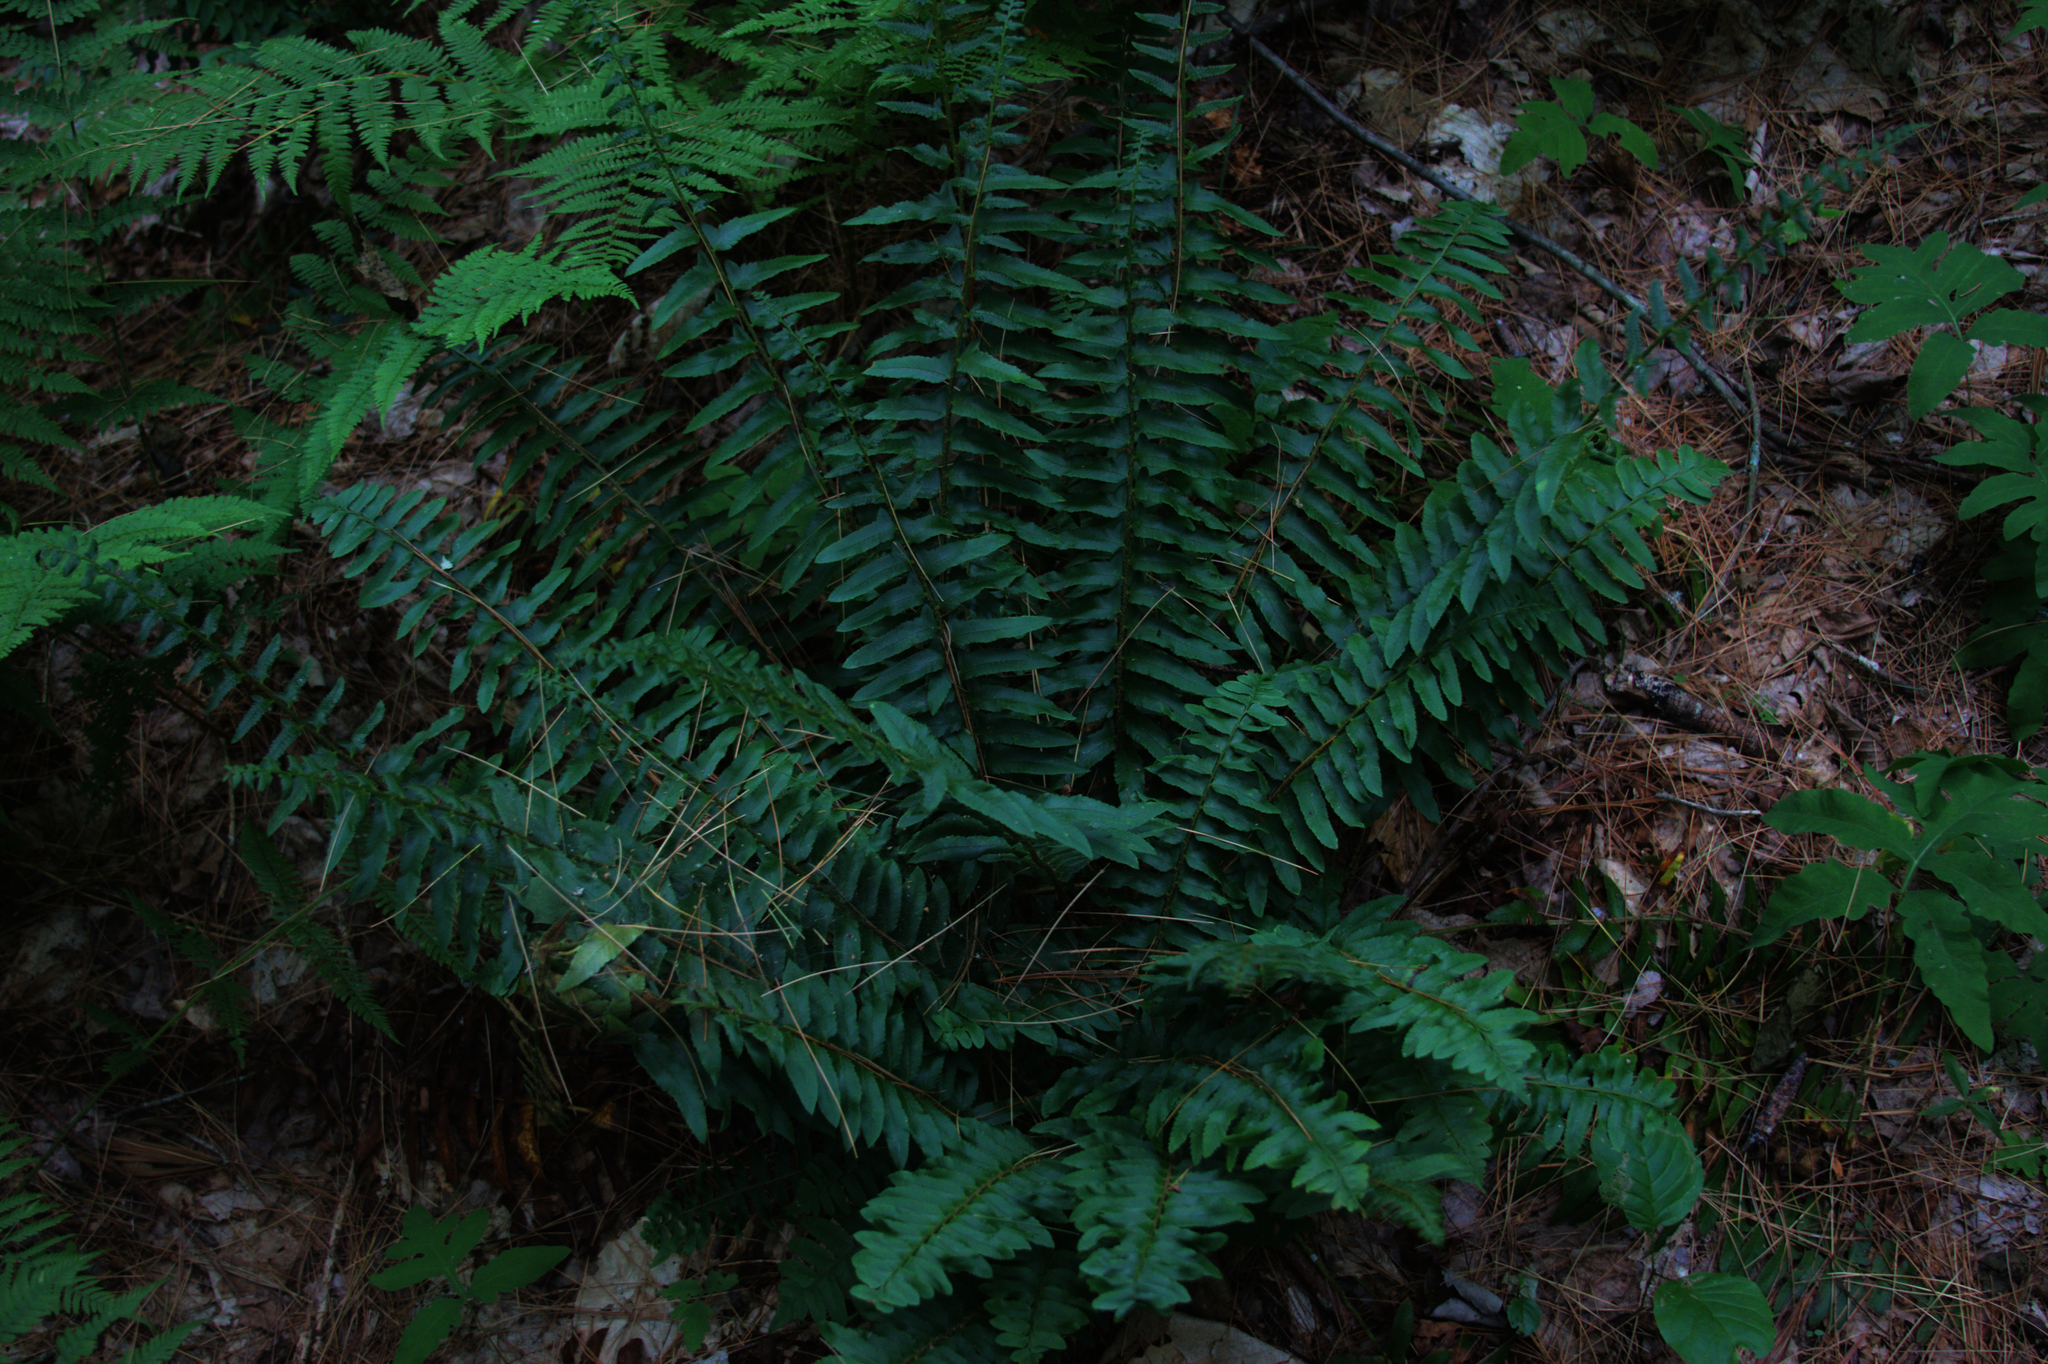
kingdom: Plantae
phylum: Tracheophyta
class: Polypodiopsida
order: Polypodiales
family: Dryopteridaceae
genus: Polystichum
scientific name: Polystichum acrostichoides
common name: Christmas fern
